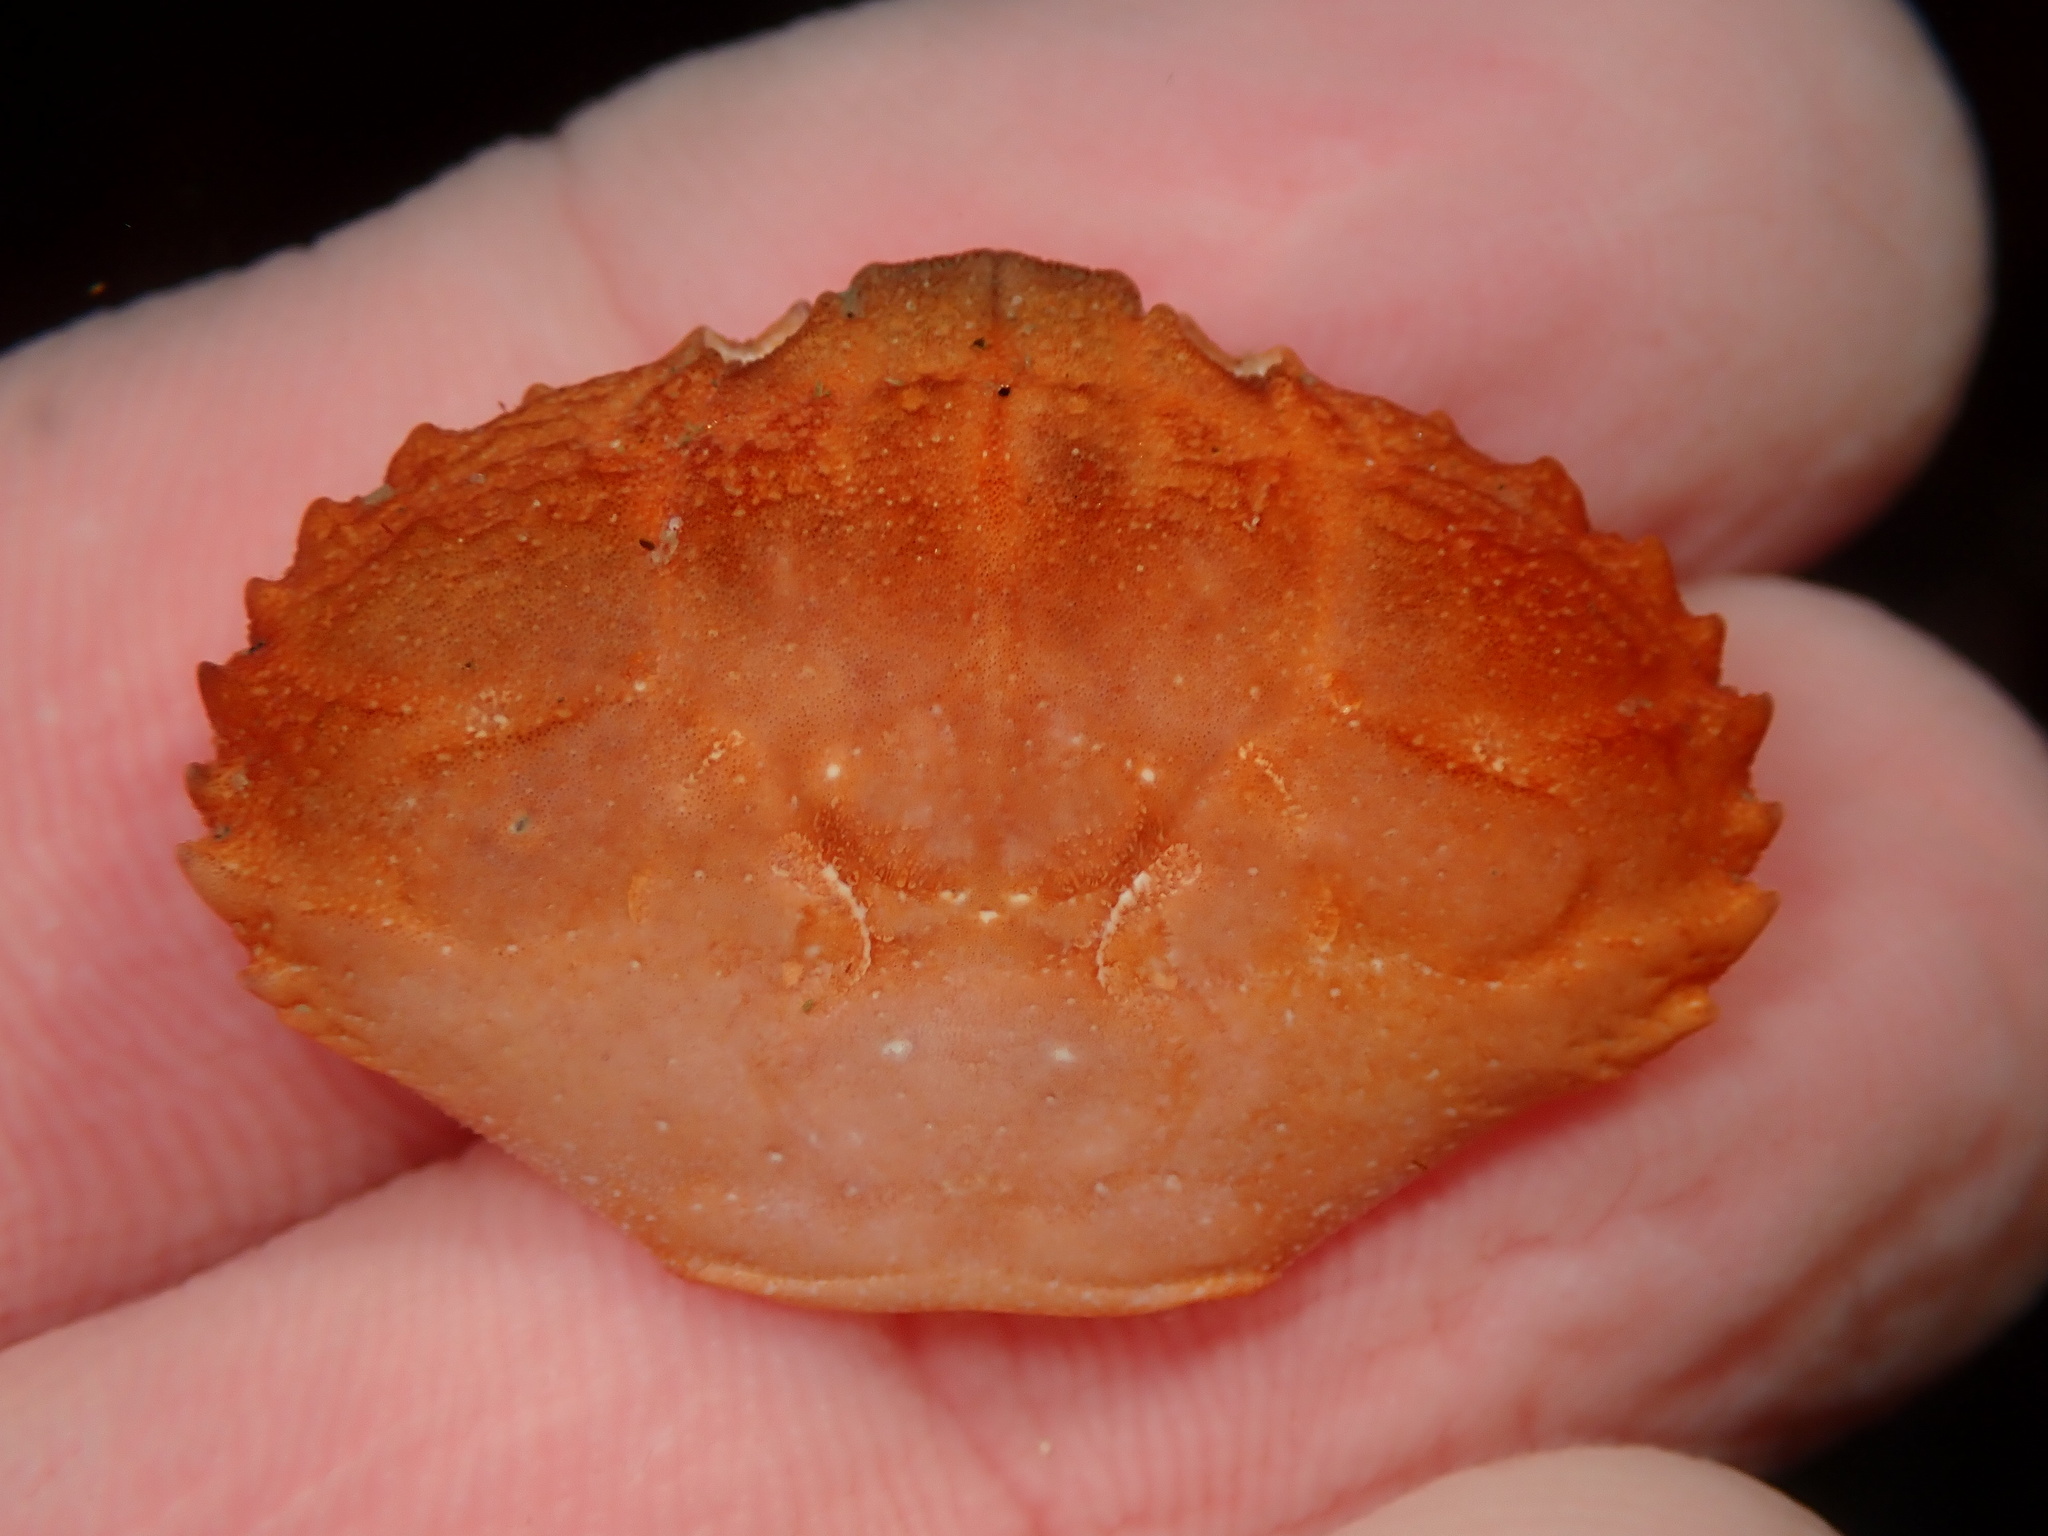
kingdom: Animalia
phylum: Arthropoda
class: Malacostraca
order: Decapoda
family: Xanthidae
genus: Cycloxanthops
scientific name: Cycloxanthops novemdentatus
